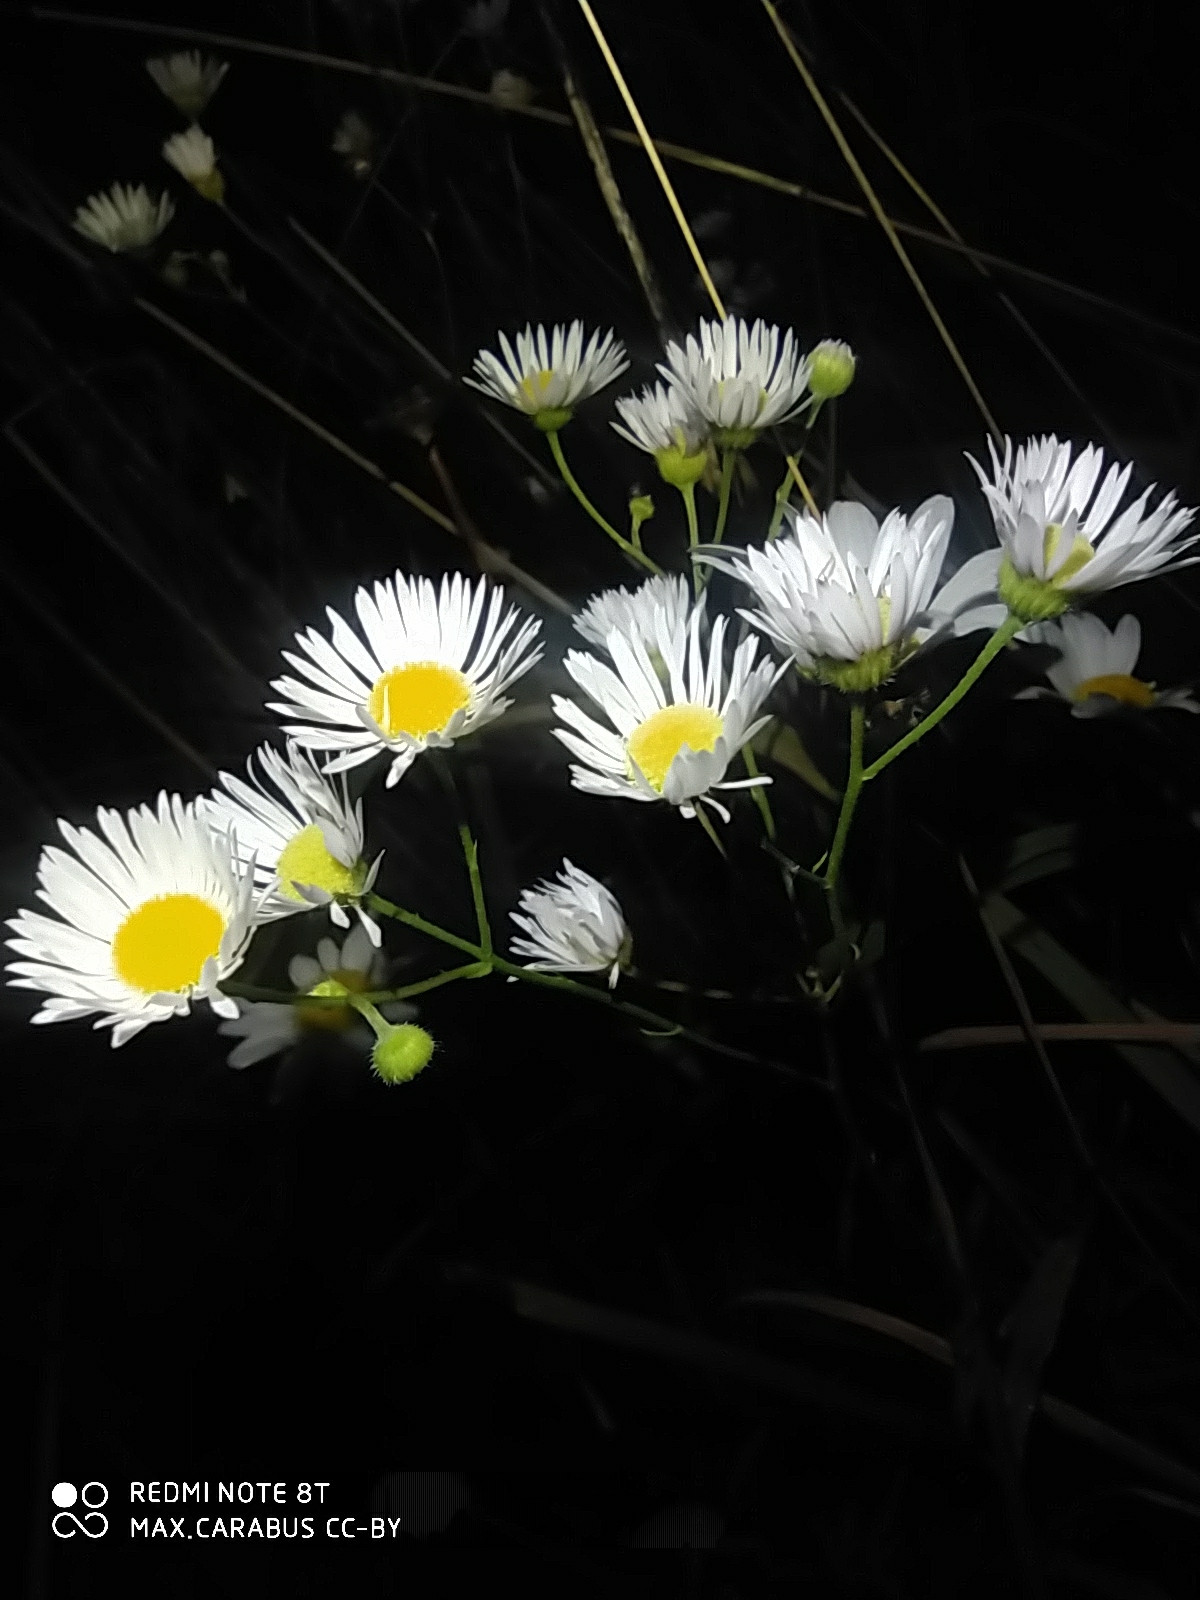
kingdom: Plantae
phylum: Tracheophyta
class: Magnoliopsida
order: Asterales
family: Asteraceae
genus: Erigeron
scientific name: Erigeron annuus
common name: Tall fleabane
